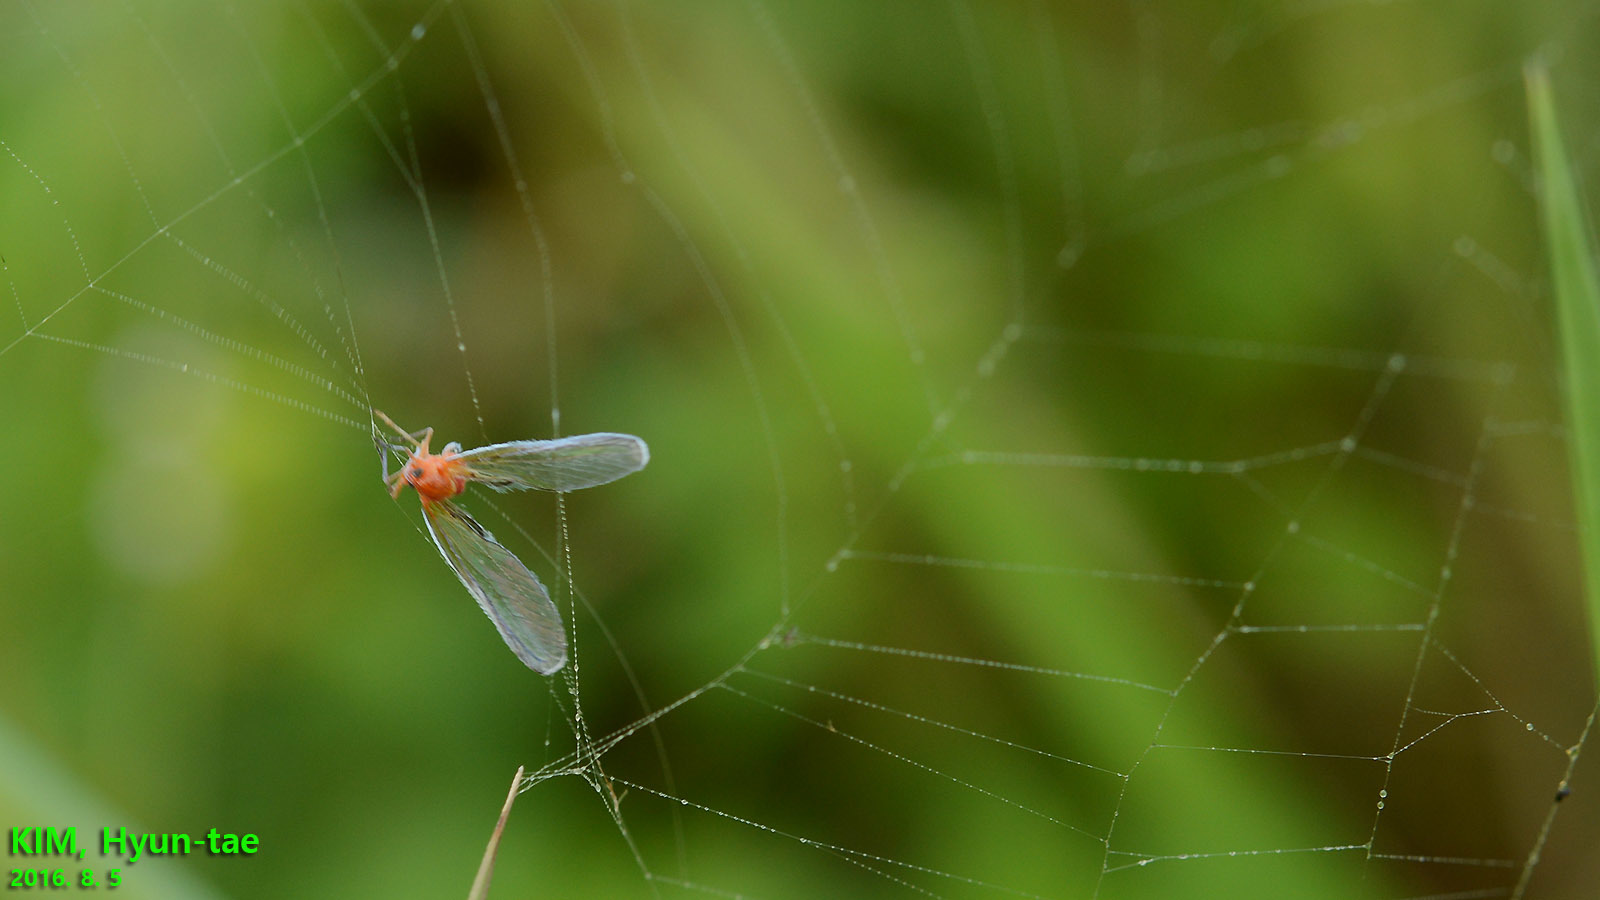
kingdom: Animalia
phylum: Arthropoda
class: Insecta
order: Hemiptera
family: Derbidae
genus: Diostrombus
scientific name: Diostrombus politus
